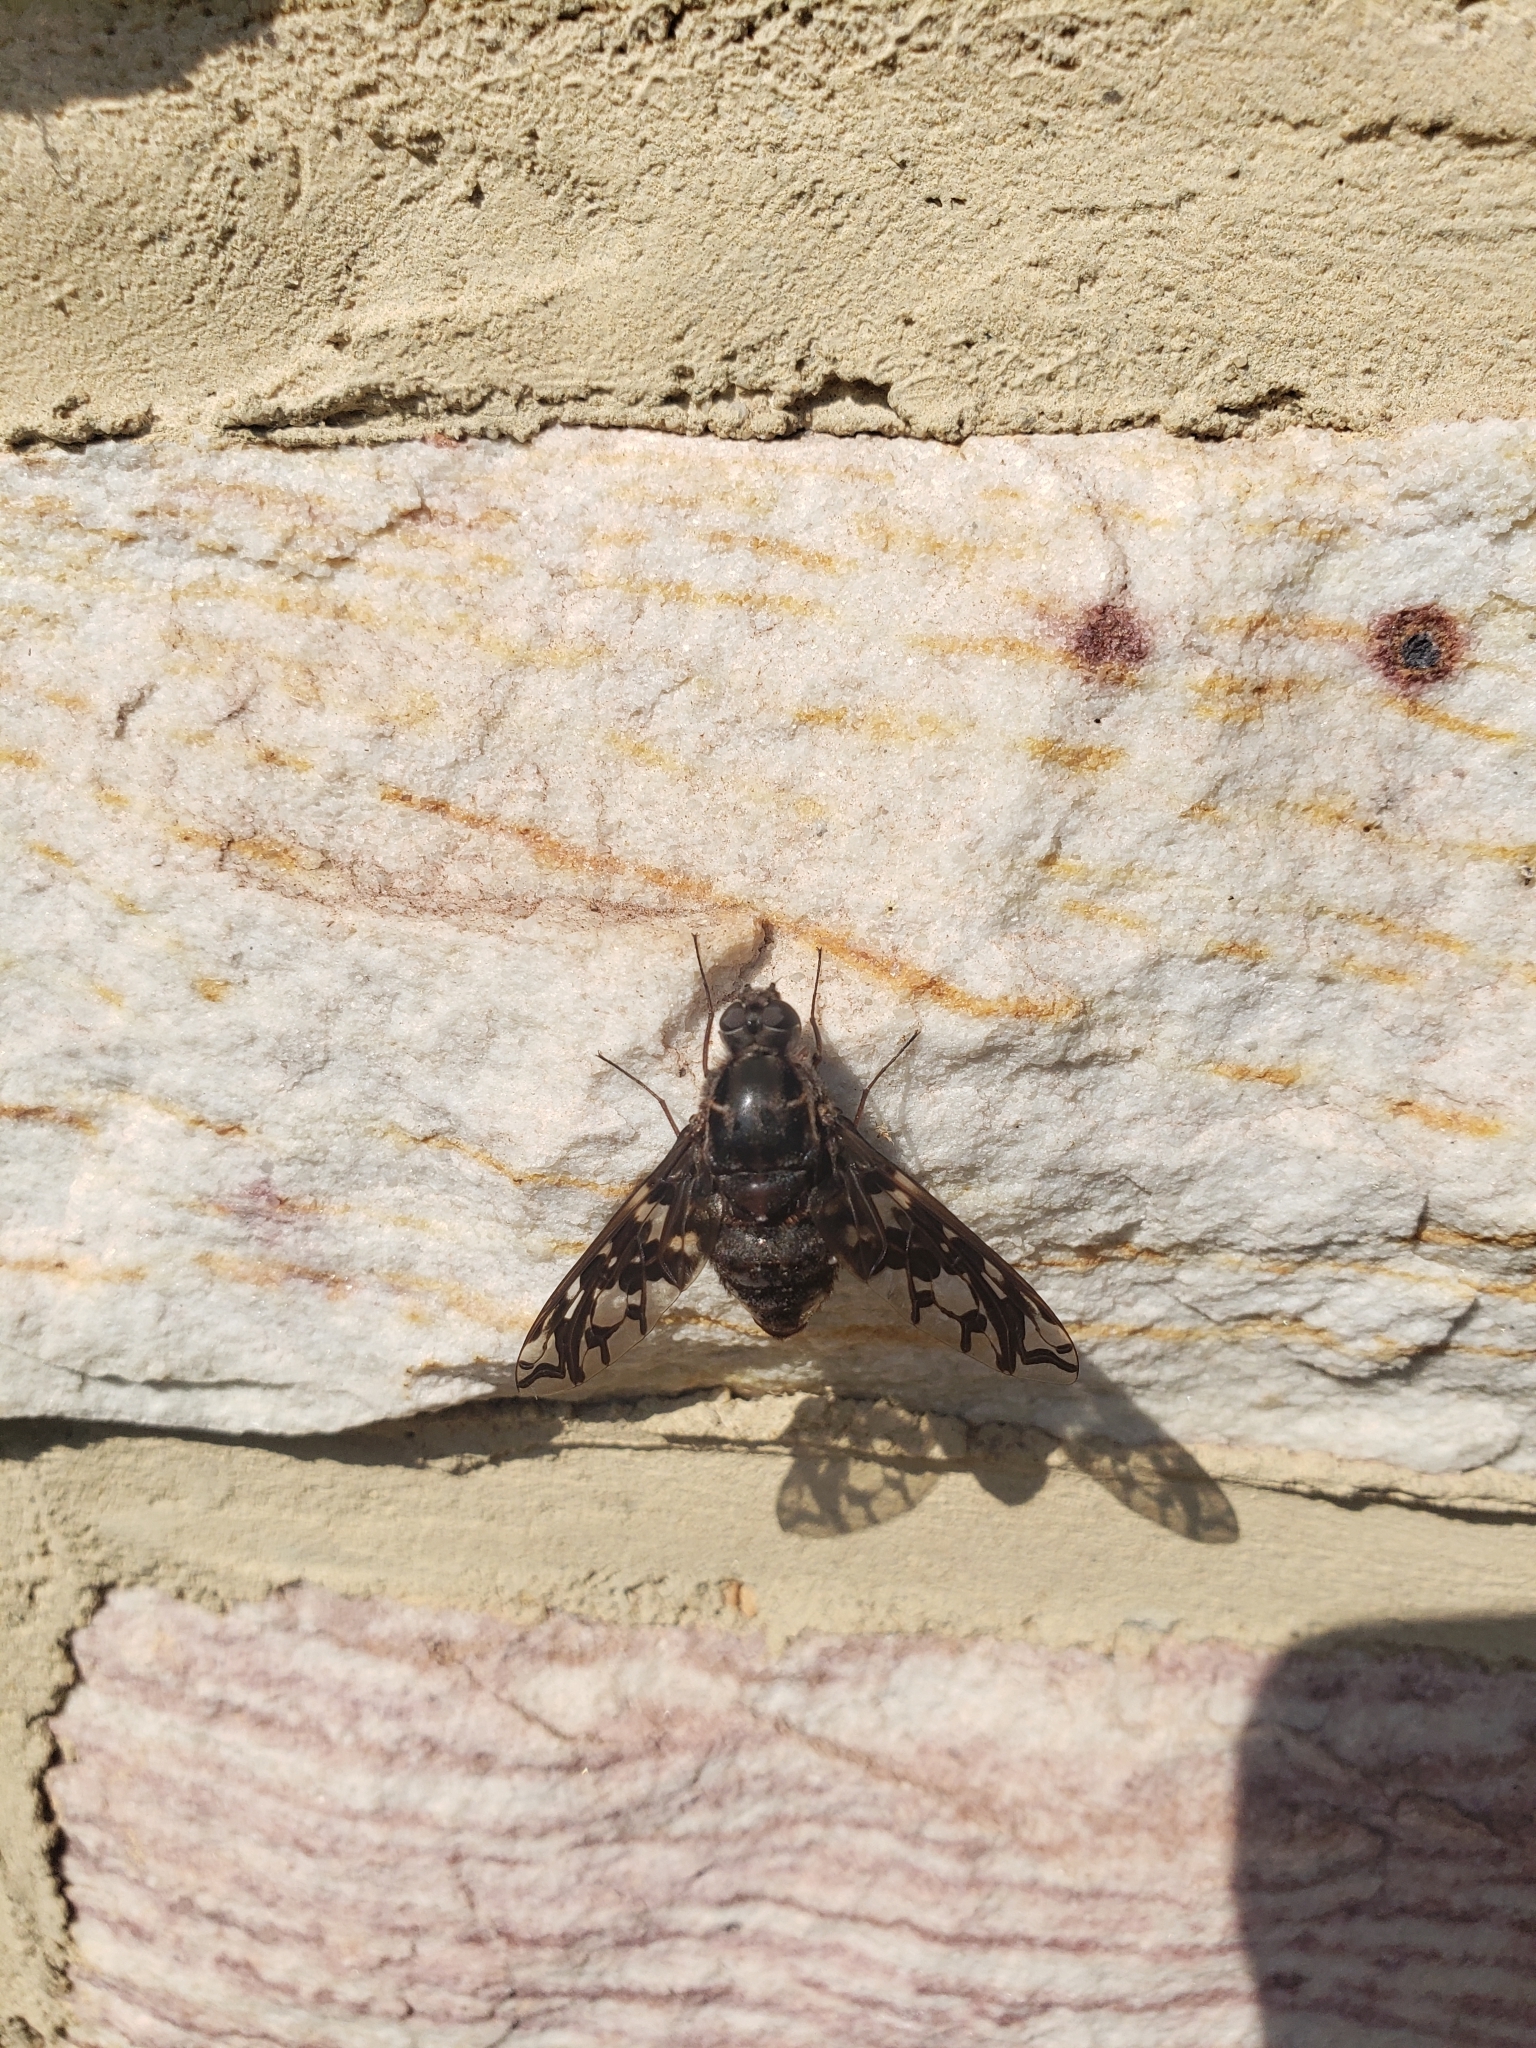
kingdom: Animalia
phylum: Arthropoda
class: Insecta
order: Diptera
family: Bombyliidae
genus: Xenox
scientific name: Xenox tigrinus
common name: Tiger bee fly
